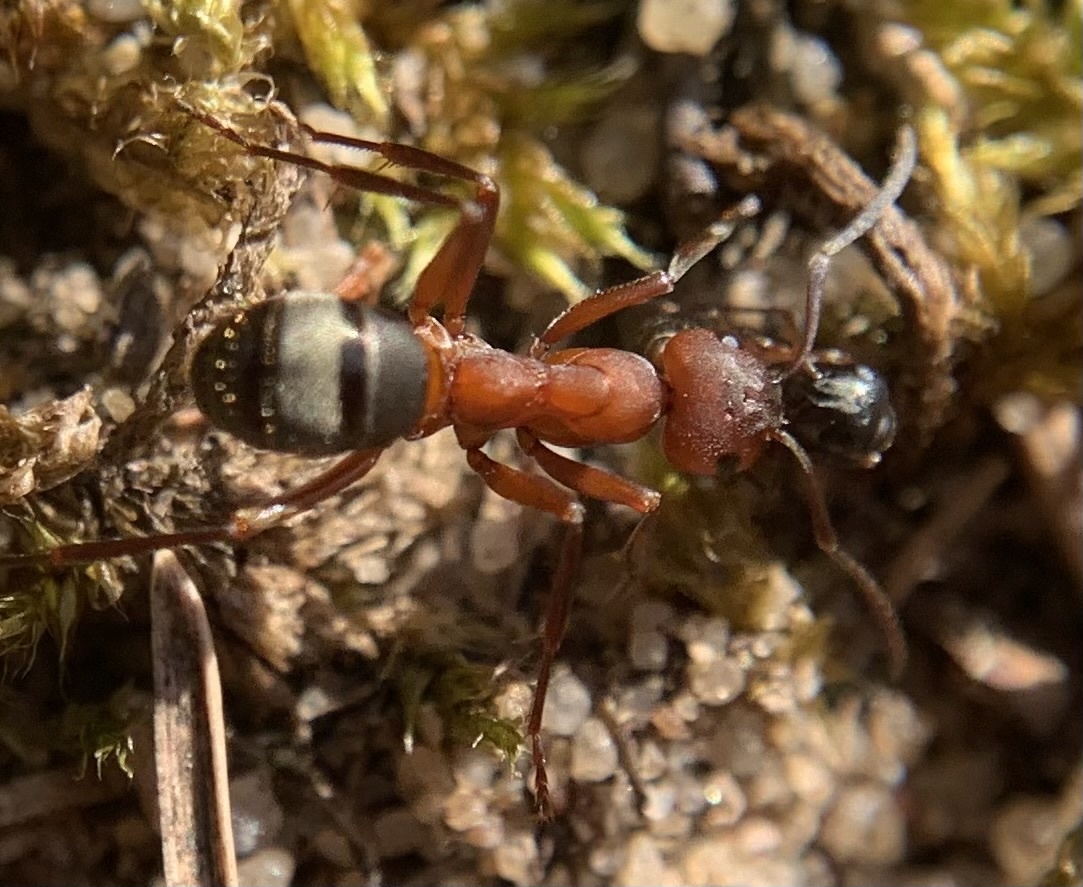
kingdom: Animalia
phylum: Arthropoda
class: Insecta
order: Hymenoptera
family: Formicidae
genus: Formica
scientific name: Formica sanguinea
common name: Blood-red ant
